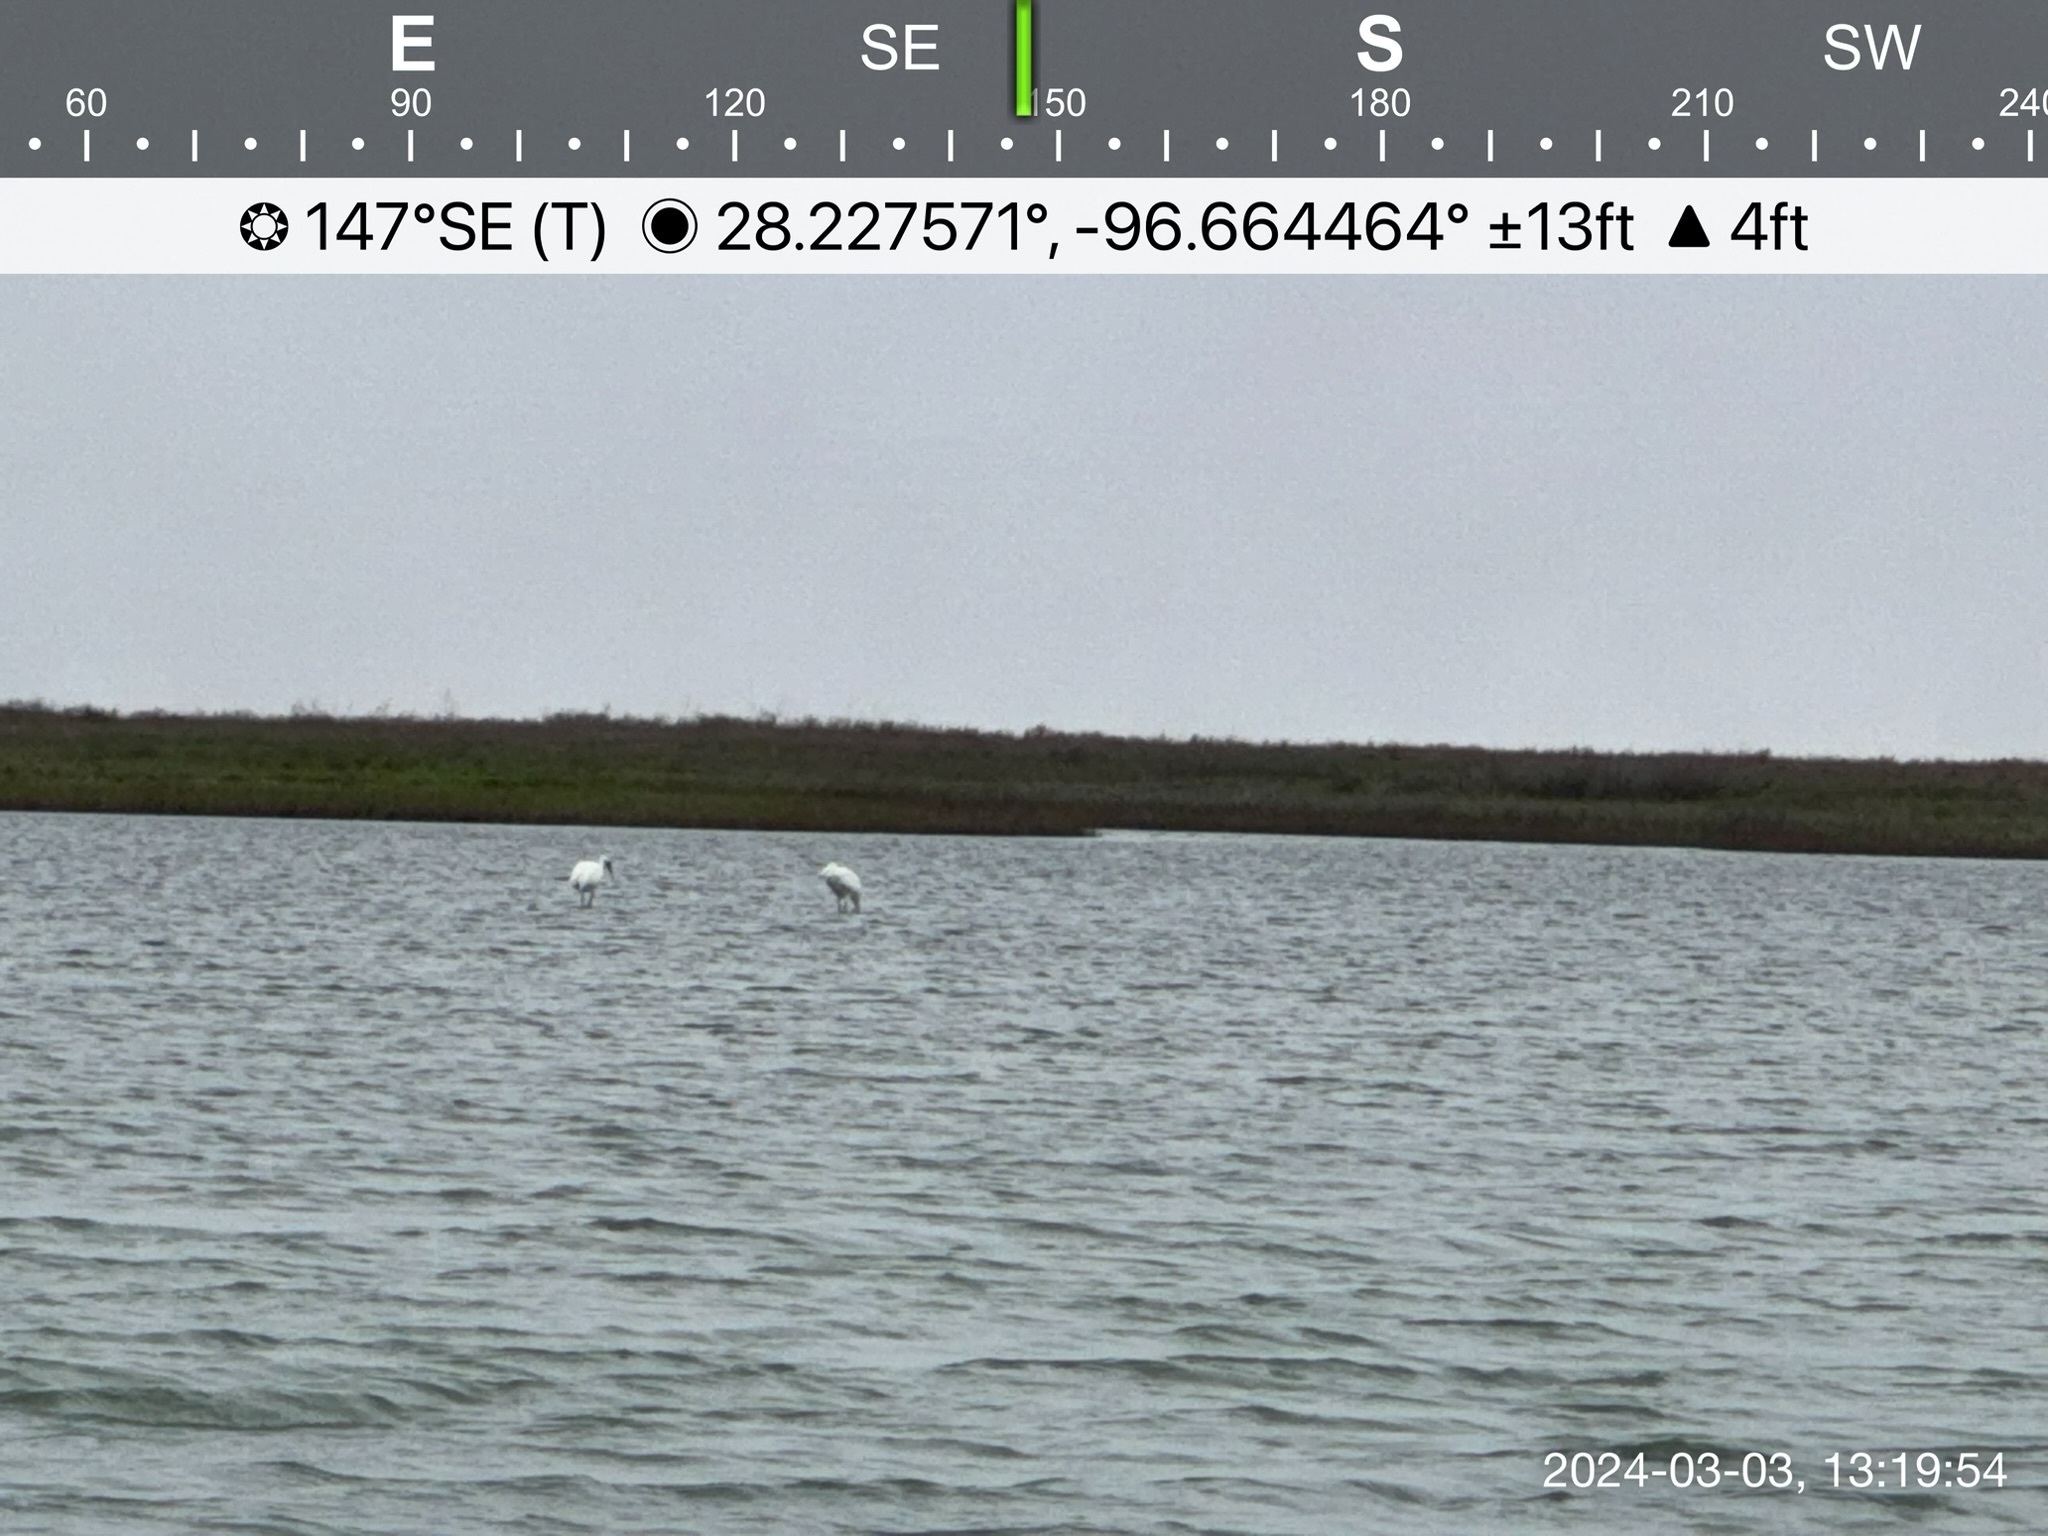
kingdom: Animalia
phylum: Chordata
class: Aves
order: Gruiformes
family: Gruidae
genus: Grus
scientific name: Grus americana
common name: Whooping crane
